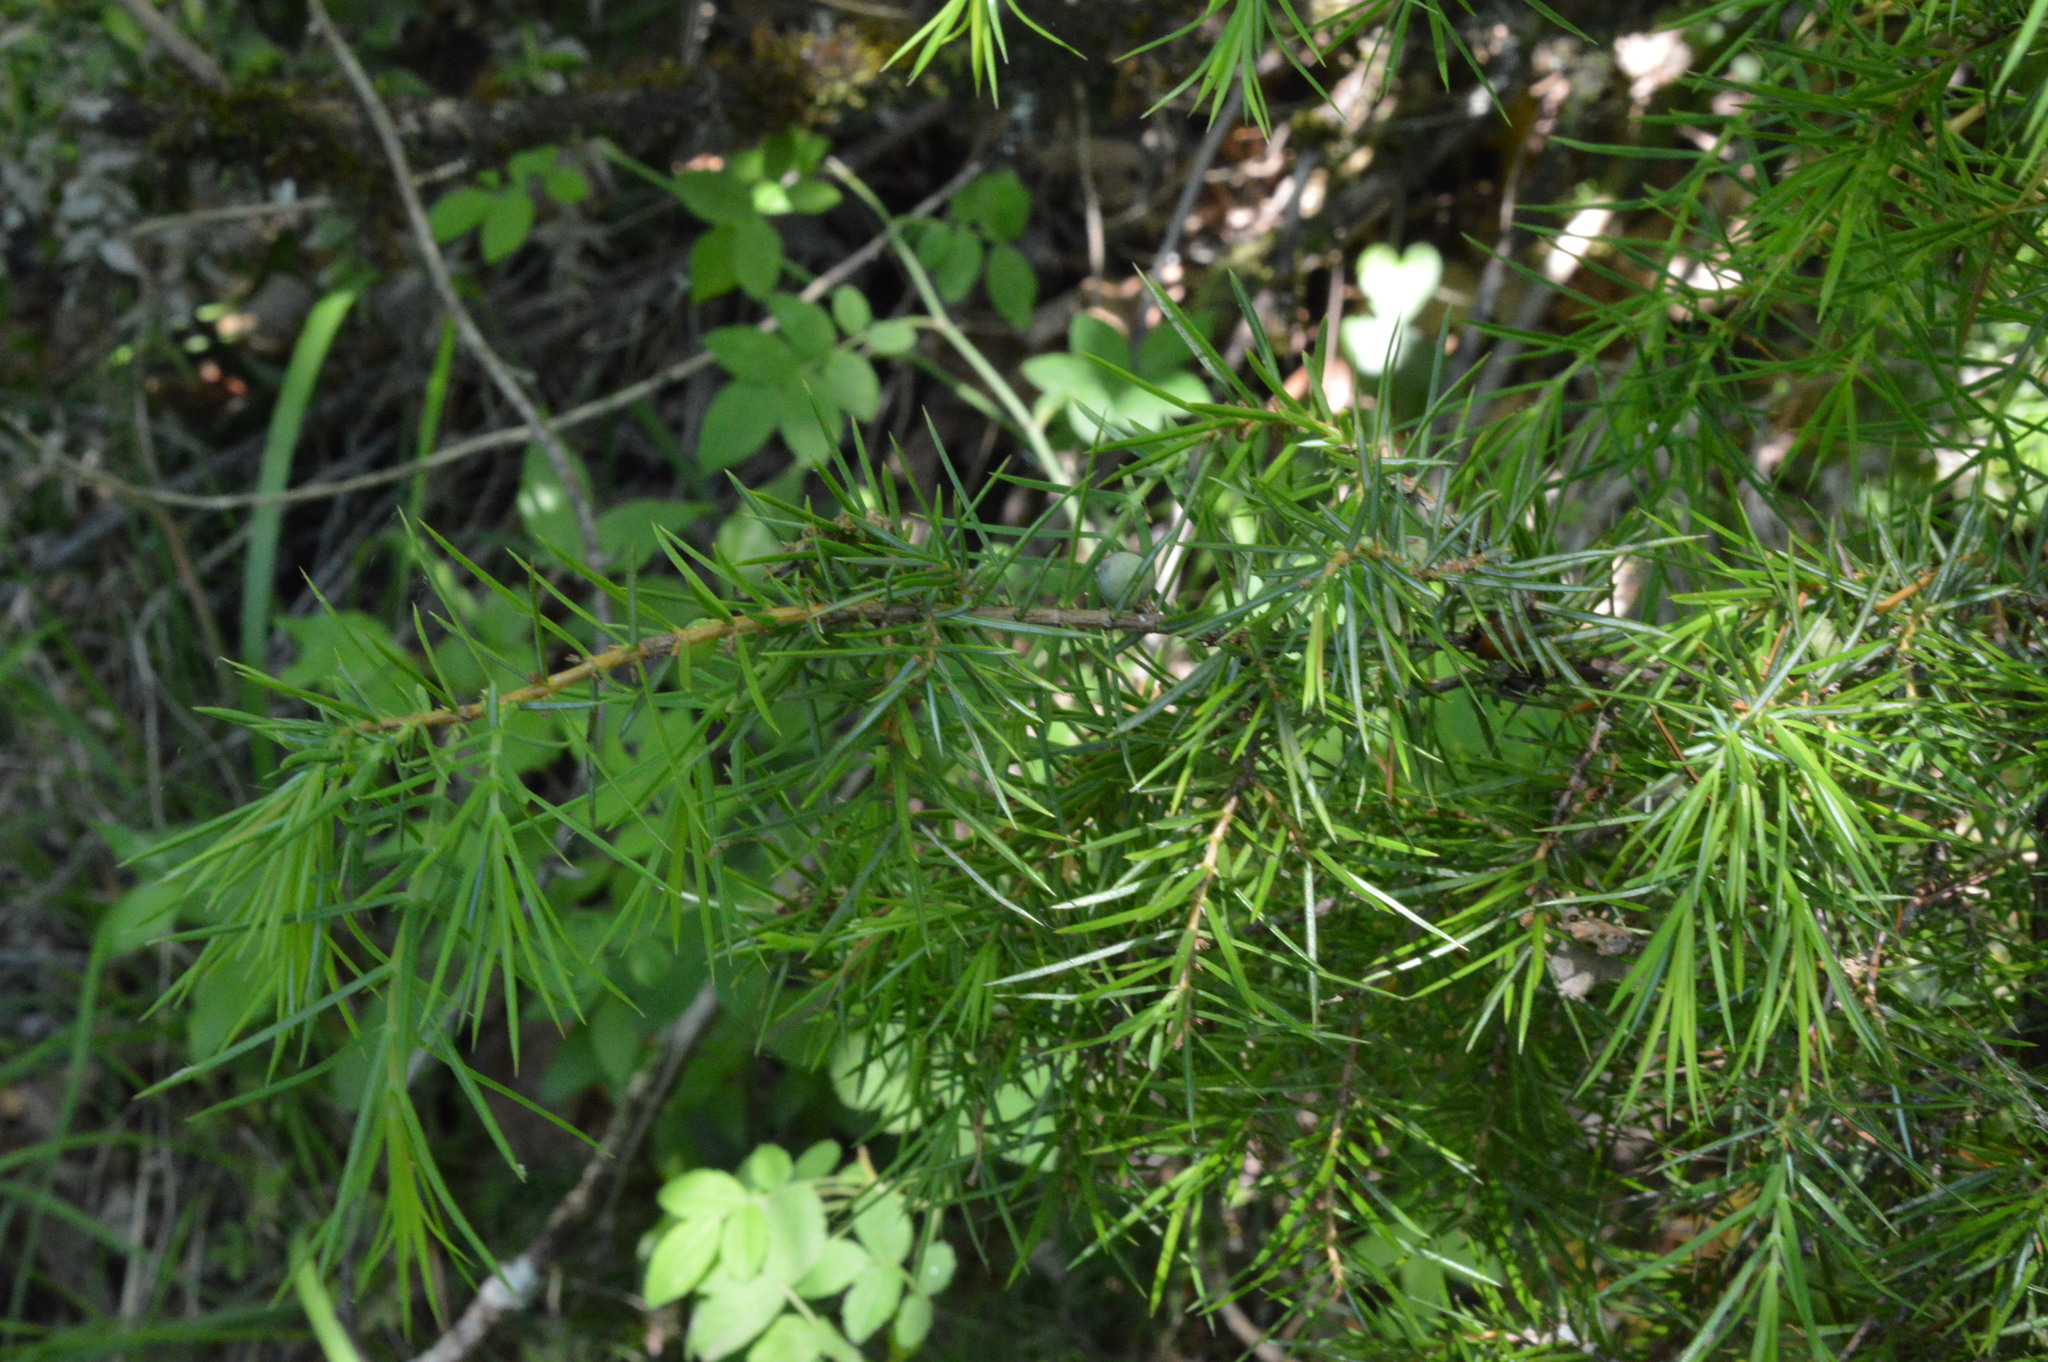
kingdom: Plantae
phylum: Tracheophyta
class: Pinopsida
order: Pinales
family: Cupressaceae
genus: Juniperus
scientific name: Juniperus communis
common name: Common juniper
